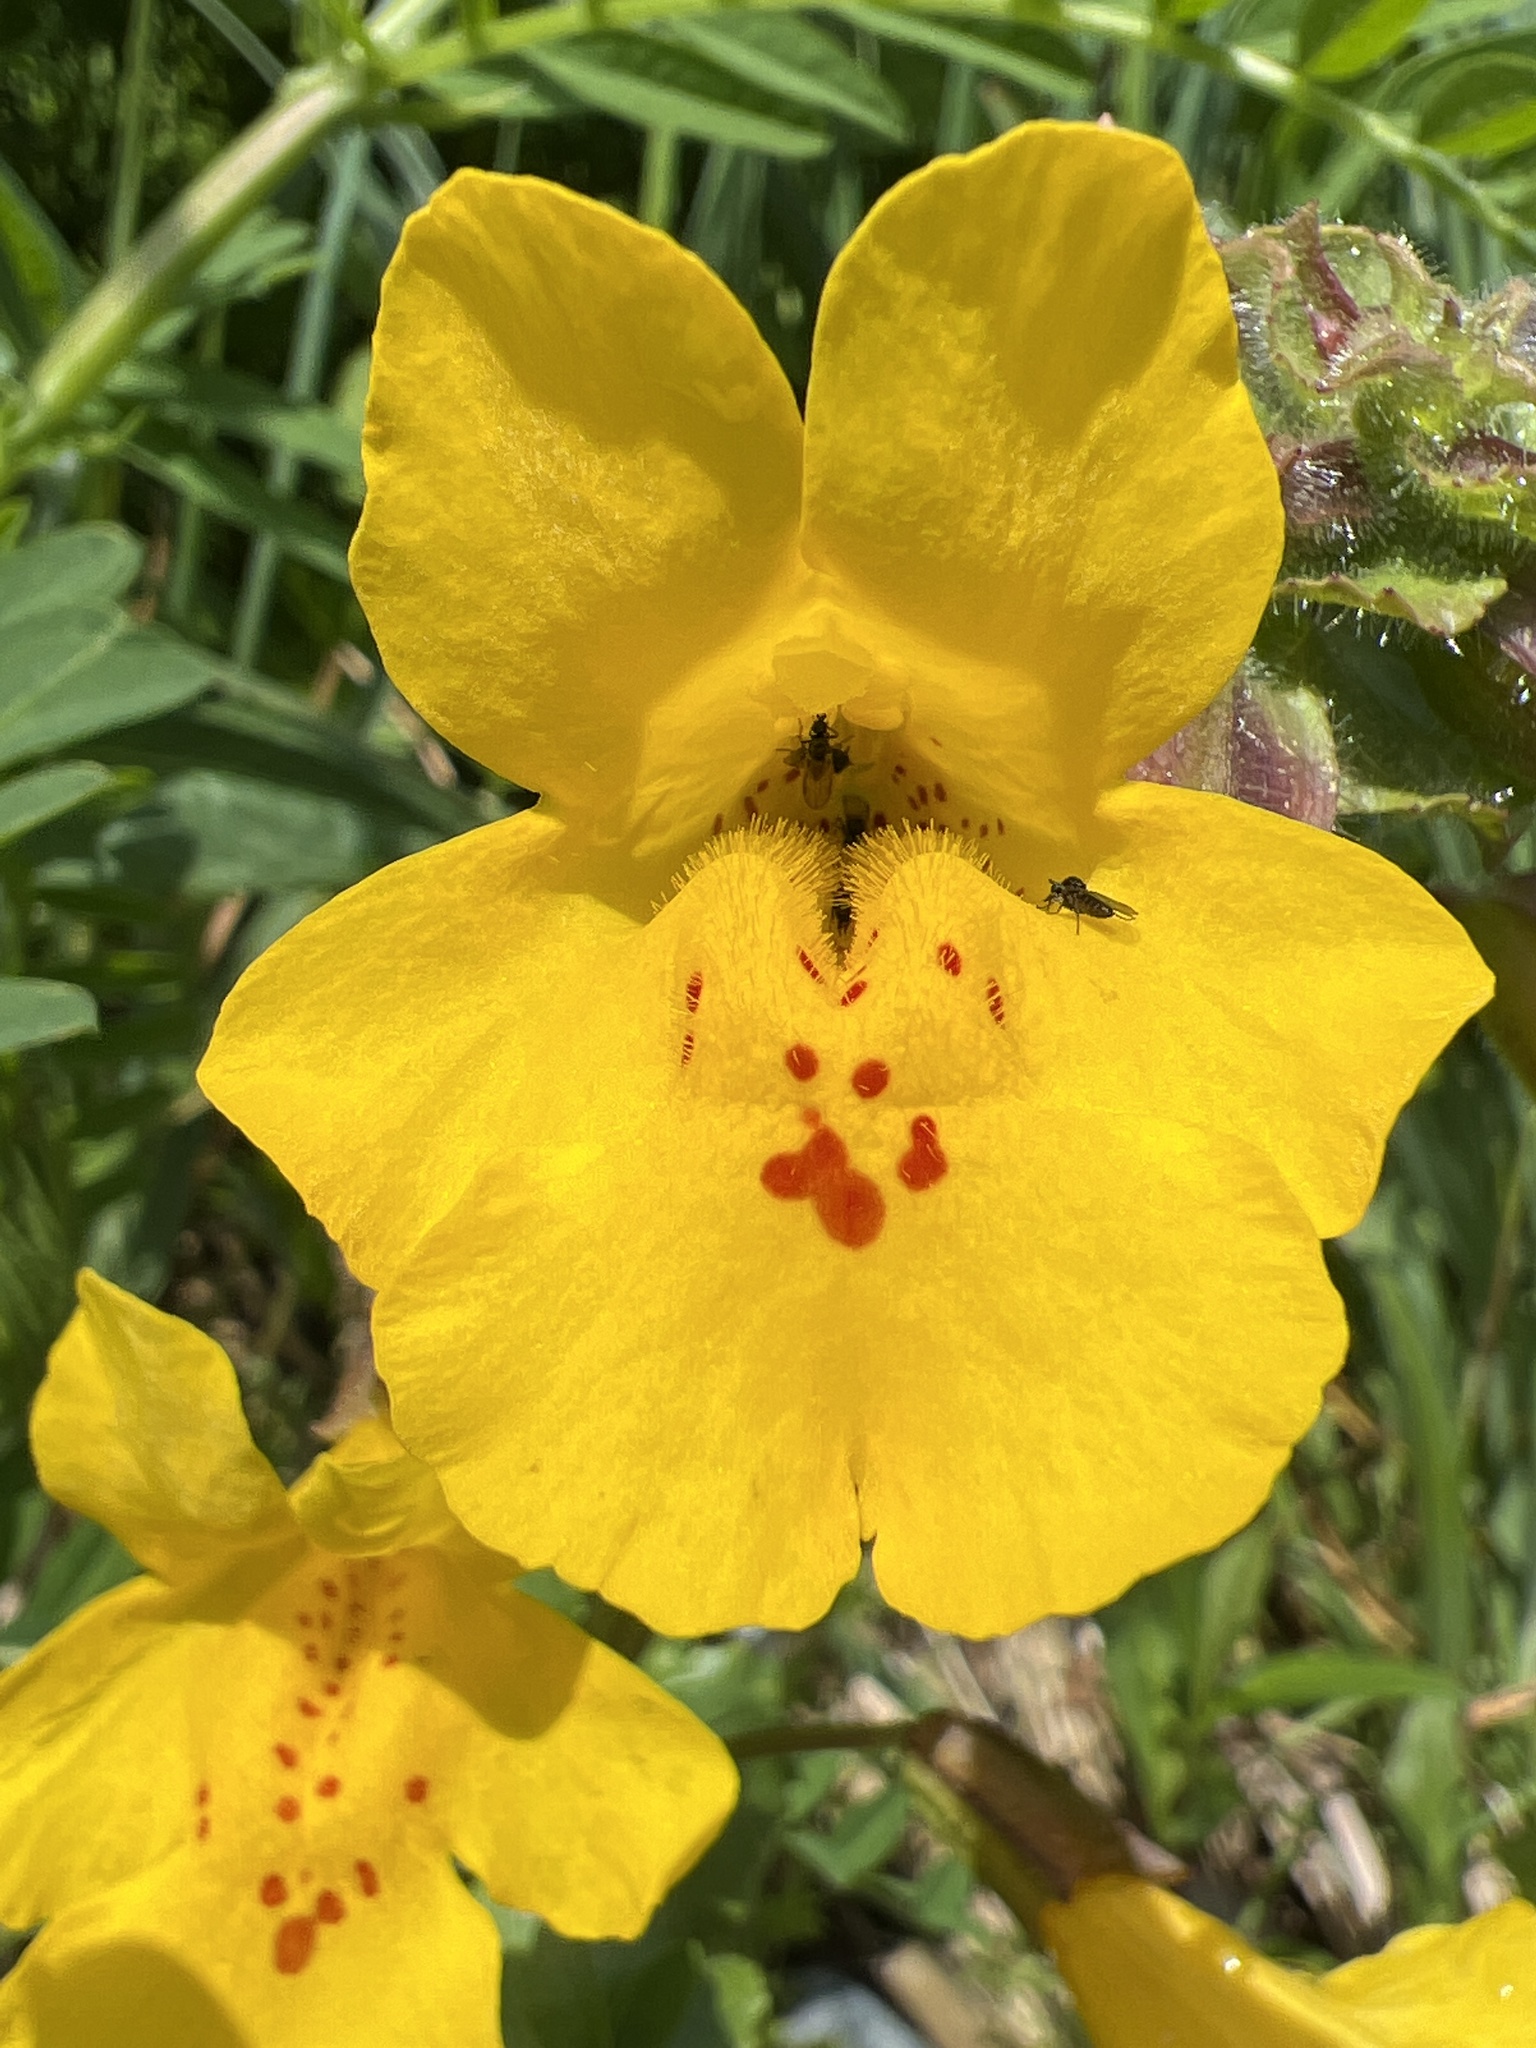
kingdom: Plantae
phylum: Tracheophyta
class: Magnoliopsida
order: Lamiales
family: Phrymaceae
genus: Erythranthe
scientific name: Erythranthe guttata
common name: Monkeyflower
